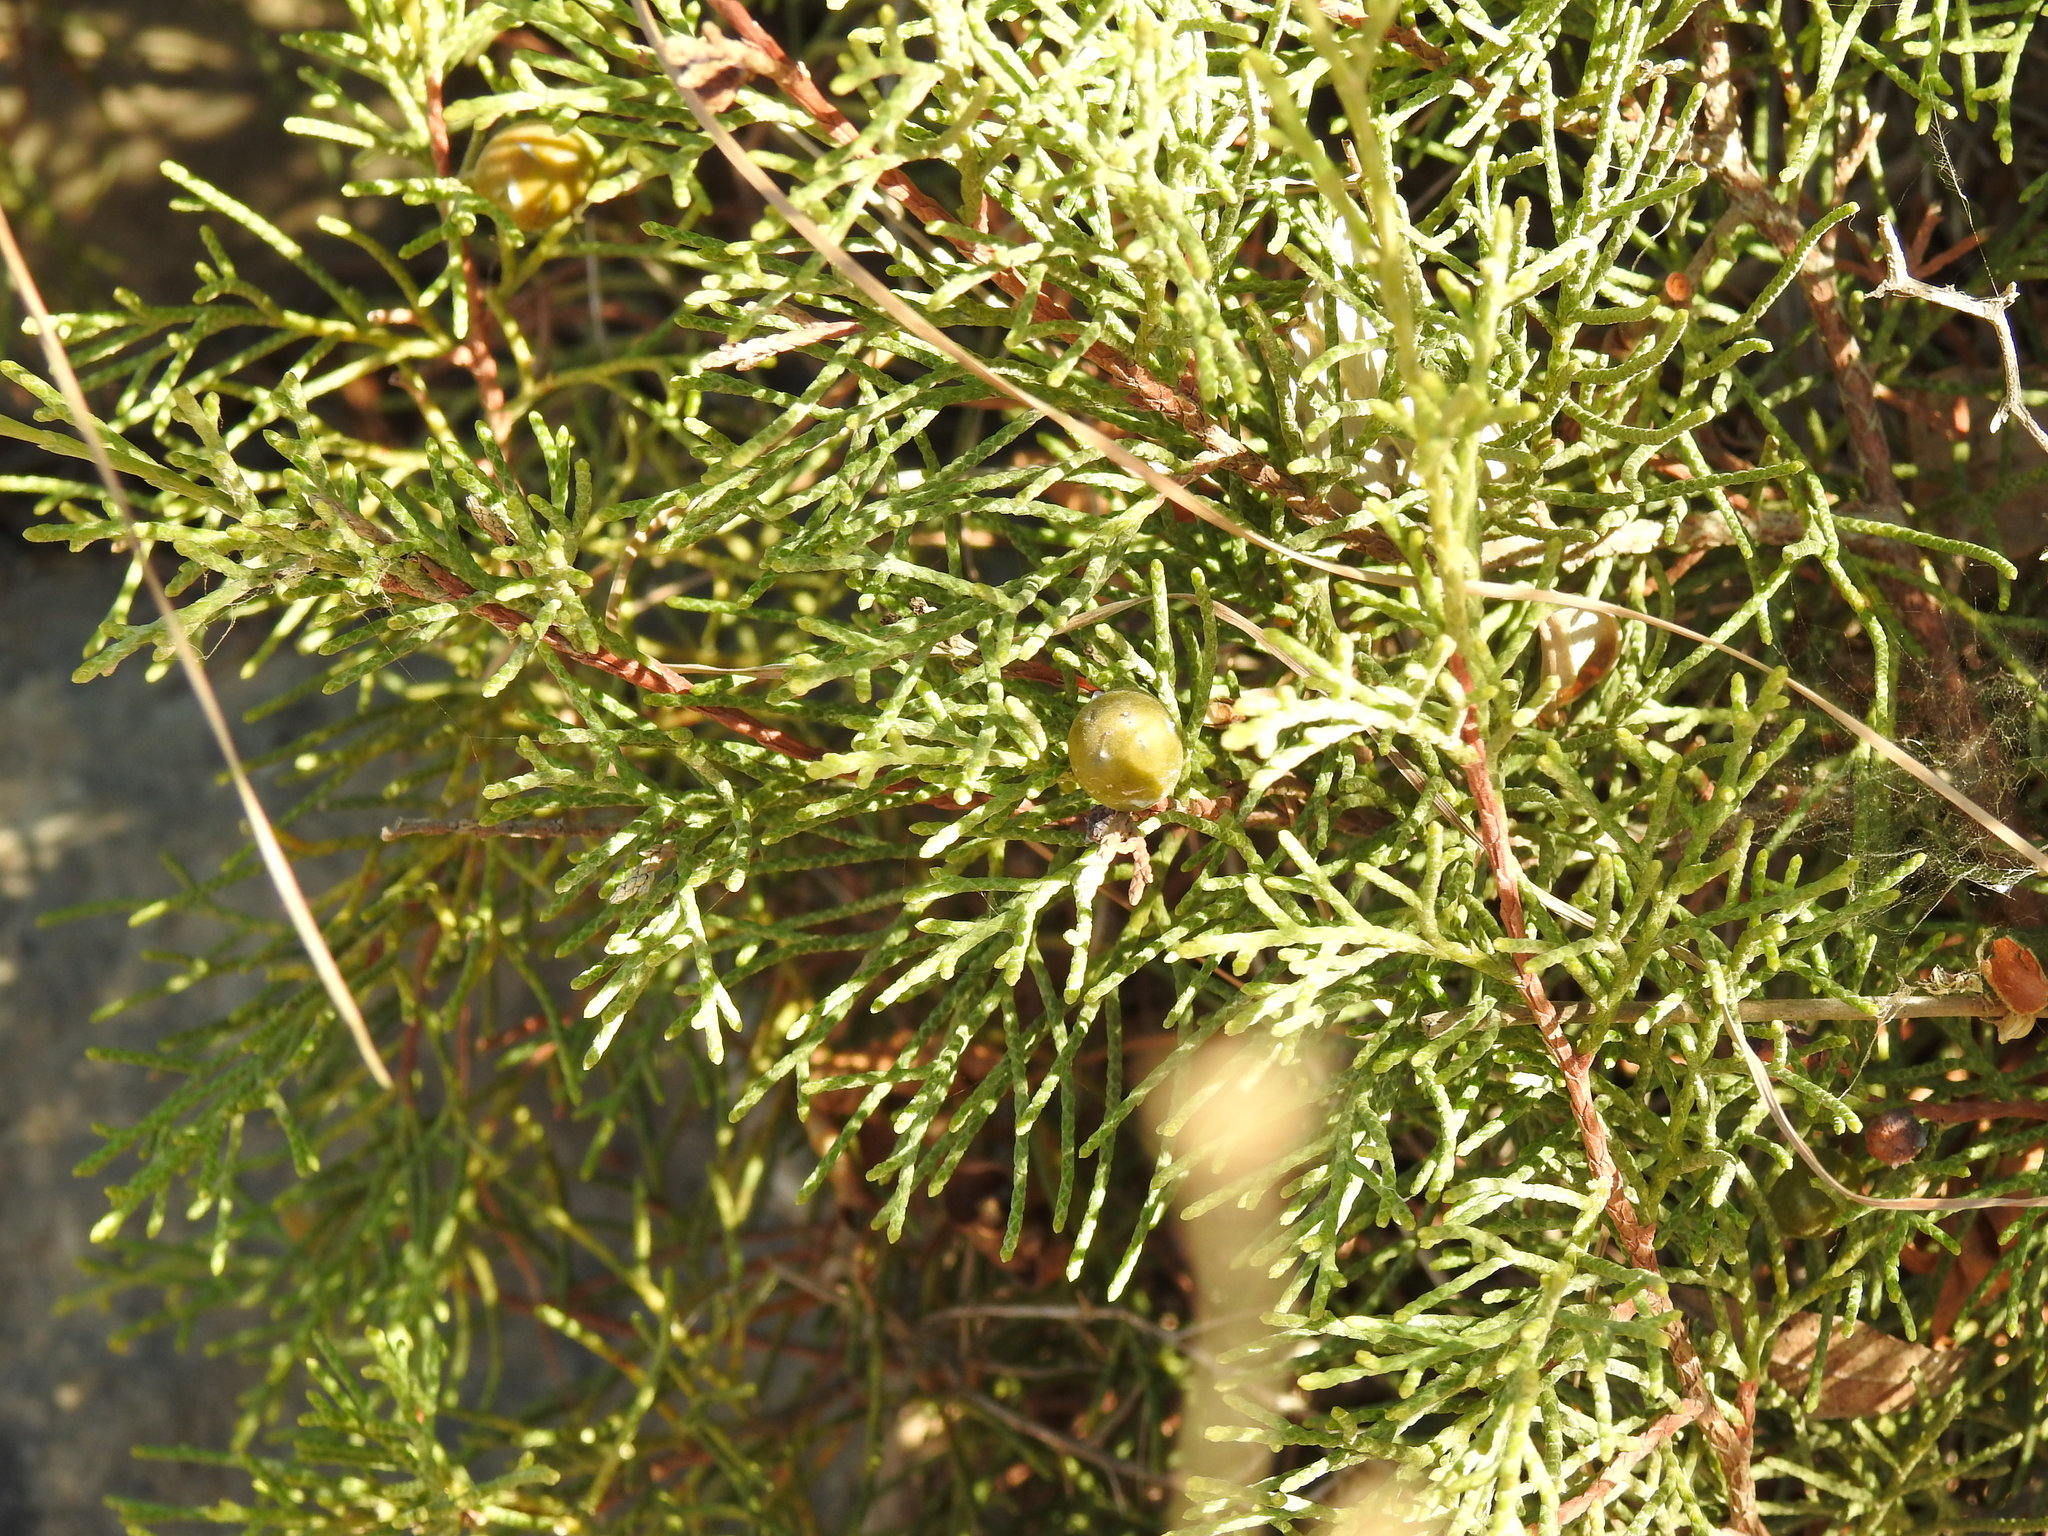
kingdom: Plantae
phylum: Tracheophyta
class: Pinopsida
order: Pinales
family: Cupressaceae
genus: Juniperus
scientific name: Juniperus phoenicea
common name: Phoenician juniper
